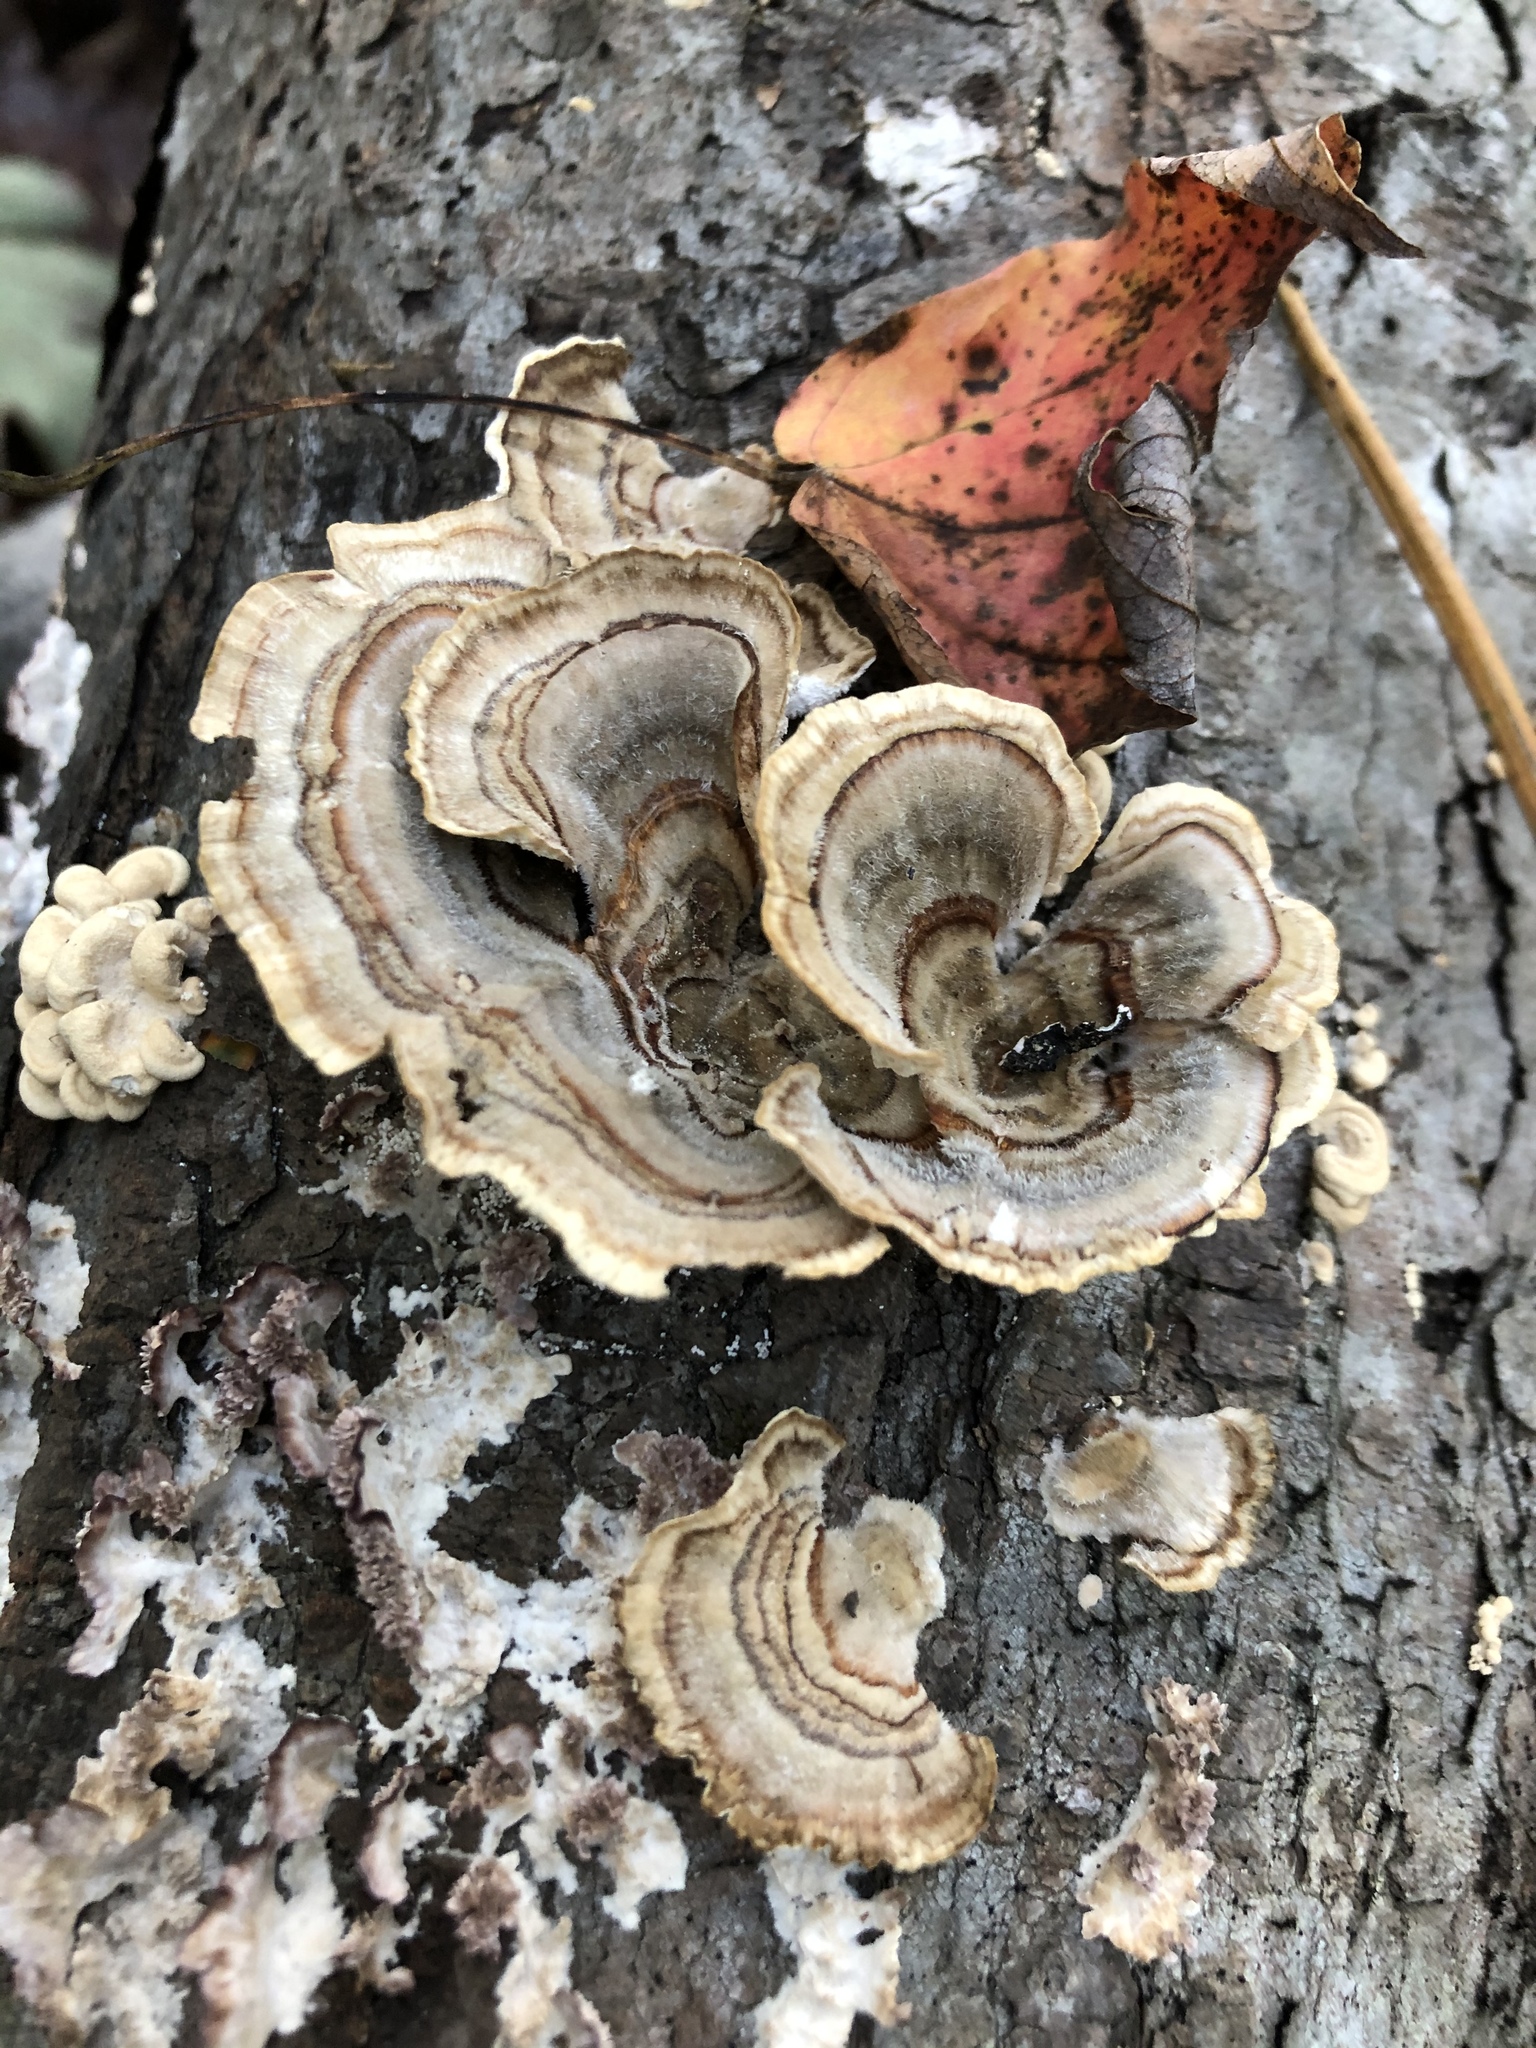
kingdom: Fungi
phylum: Basidiomycota
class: Agaricomycetes
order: Polyporales
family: Polyporaceae
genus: Trametes
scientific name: Trametes versicolor
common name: Turkeytail
